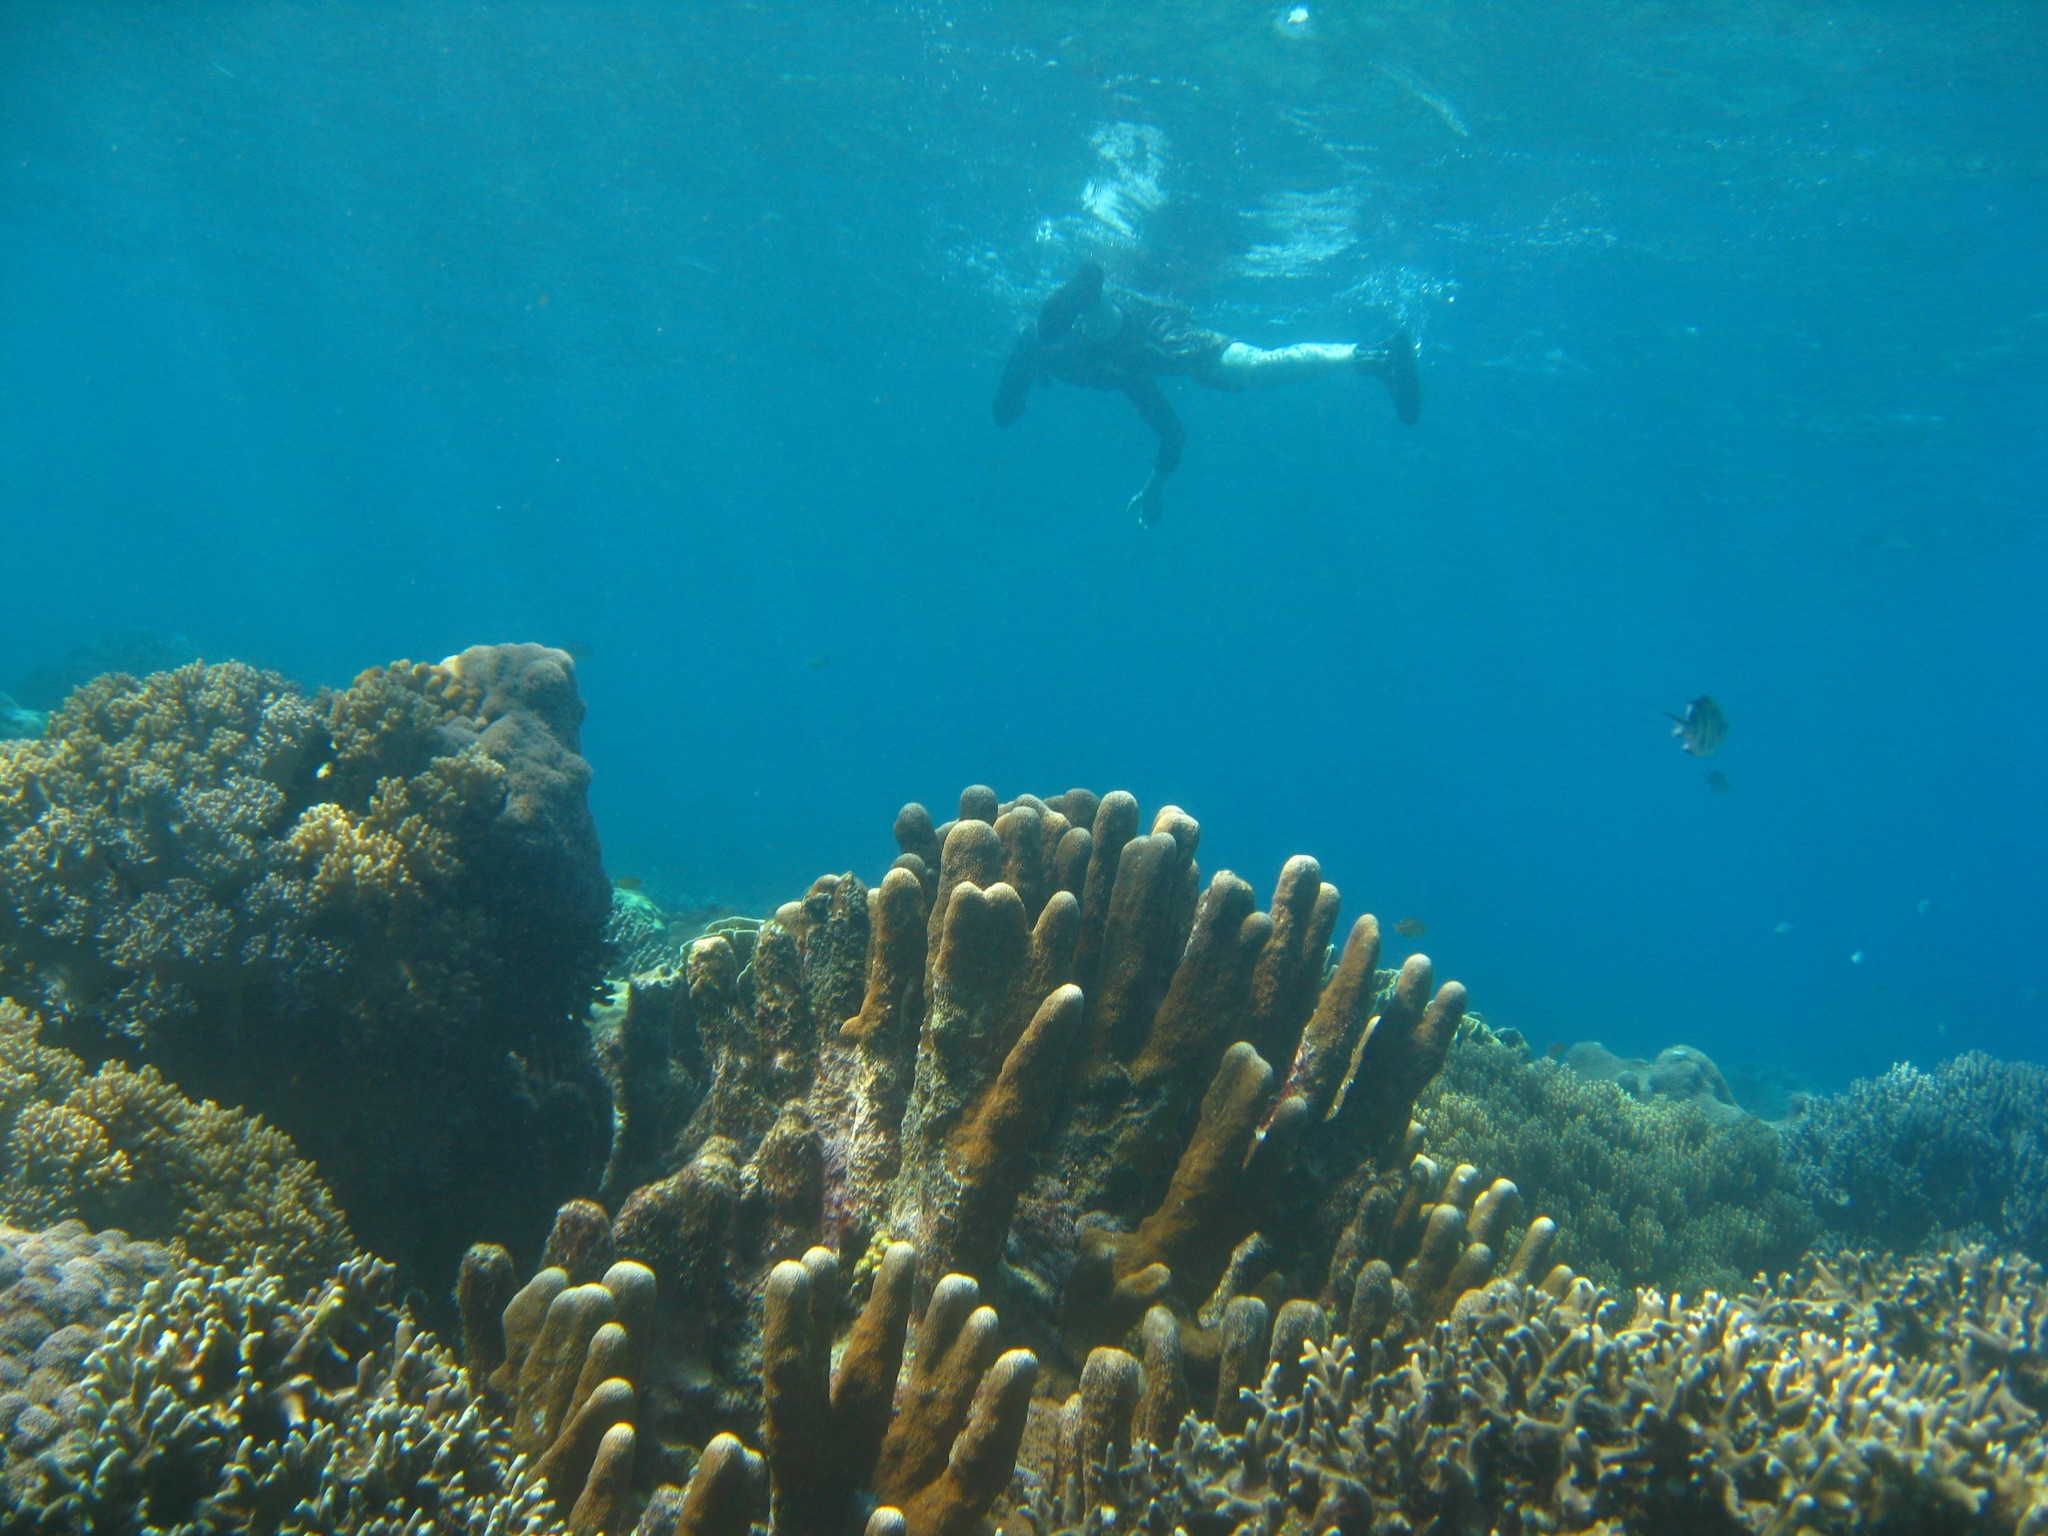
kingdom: Animalia
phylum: Cnidaria
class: Anthozoa
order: Scleractinia
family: Acroporidae
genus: Isopora
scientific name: Isopora palifera
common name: Catch bowl coral
